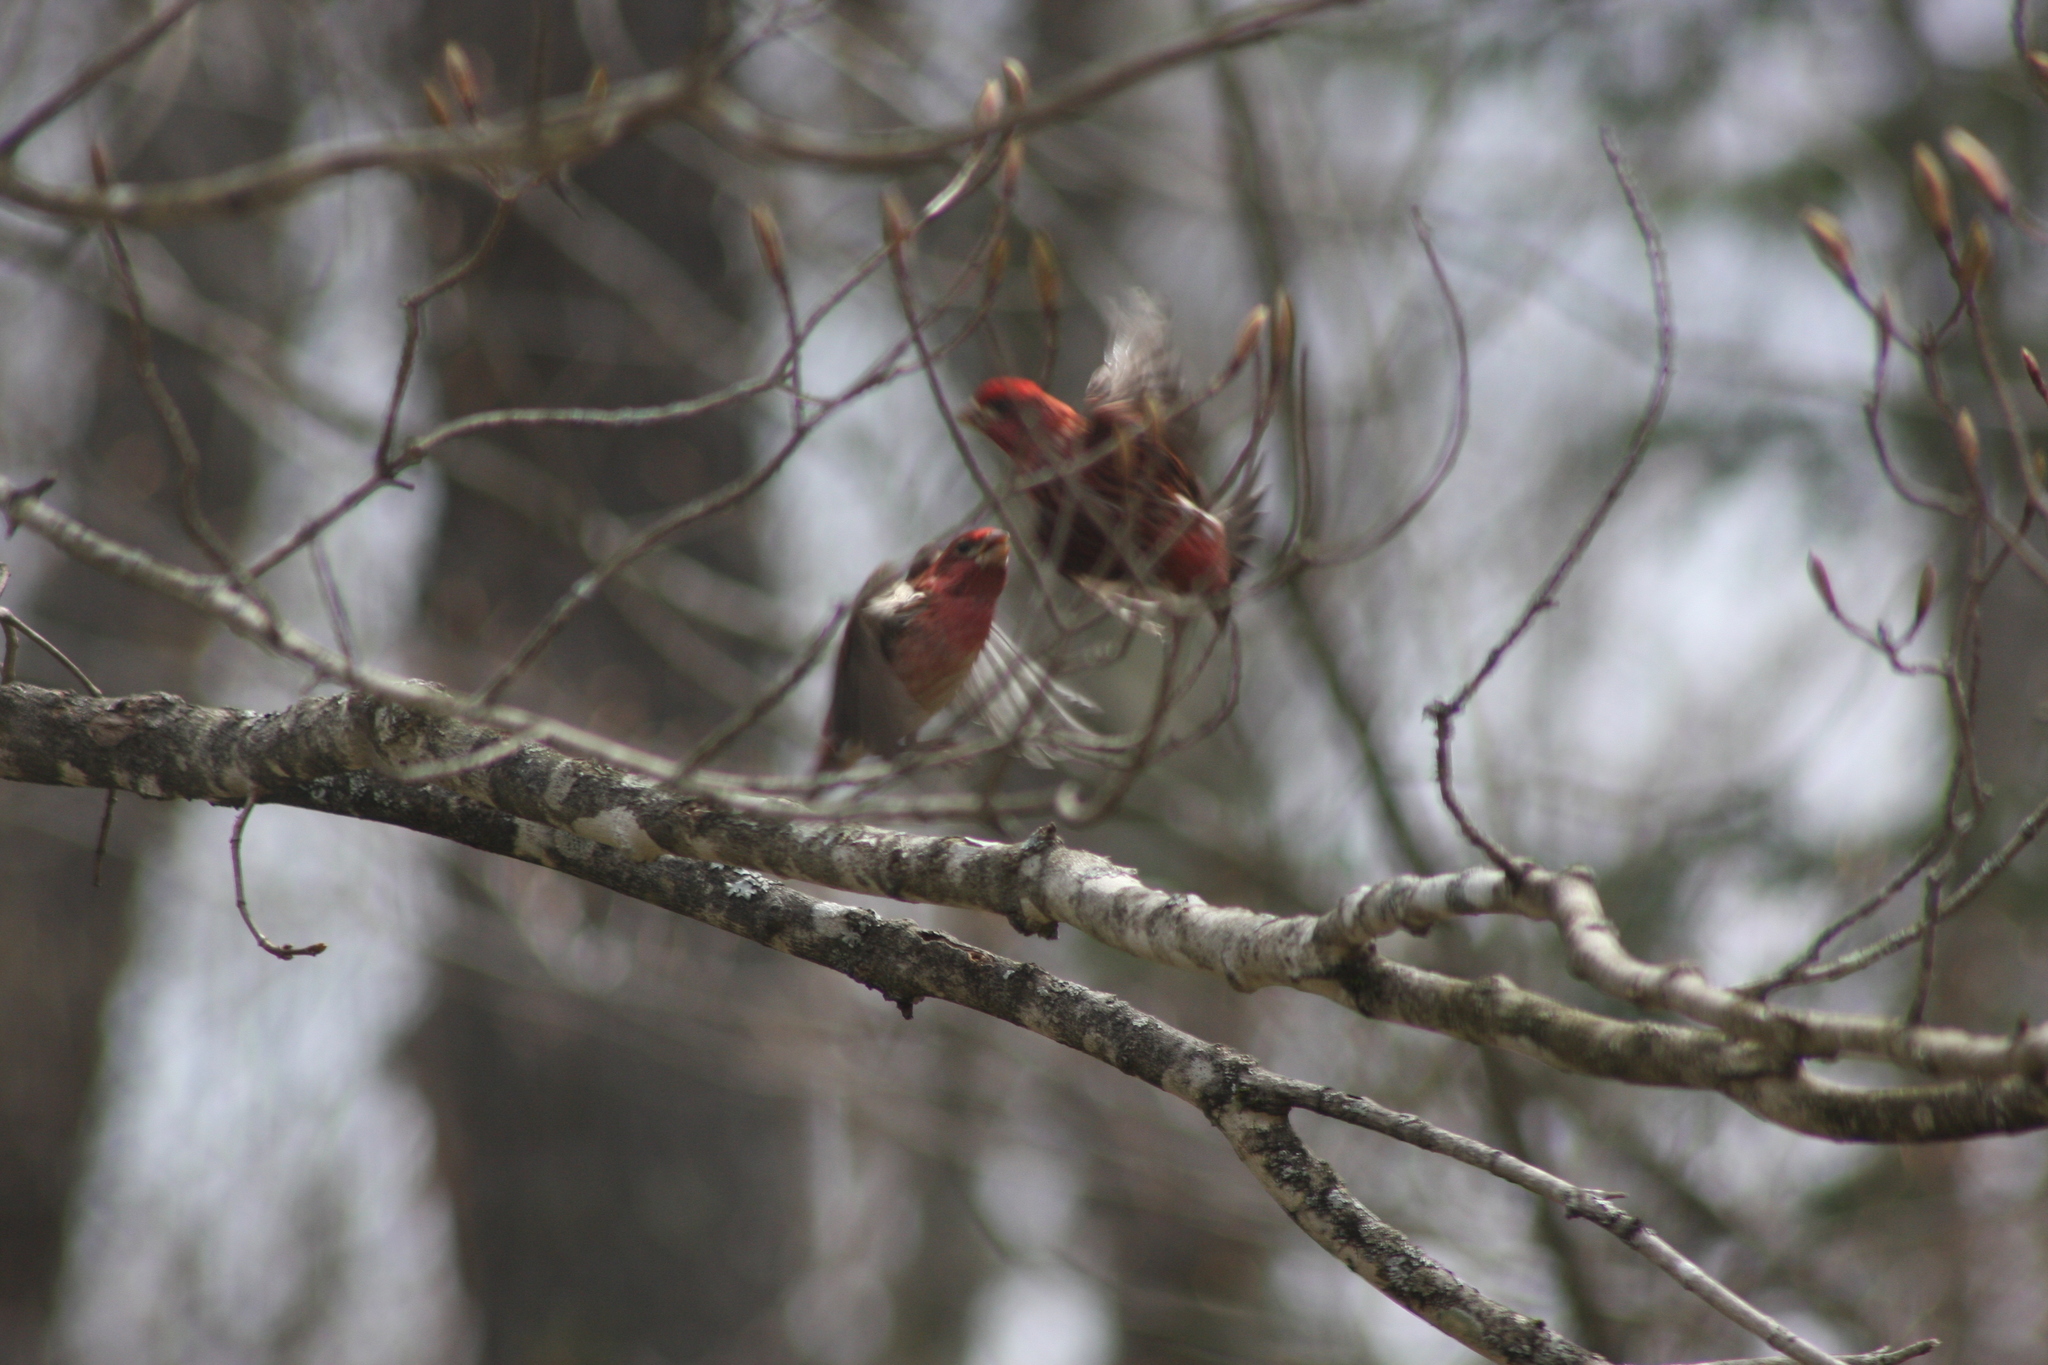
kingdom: Animalia
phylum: Chordata
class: Aves
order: Passeriformes
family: Fringillidae
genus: Haemorhous
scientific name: Haemorhous purpureus
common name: Purple finch
